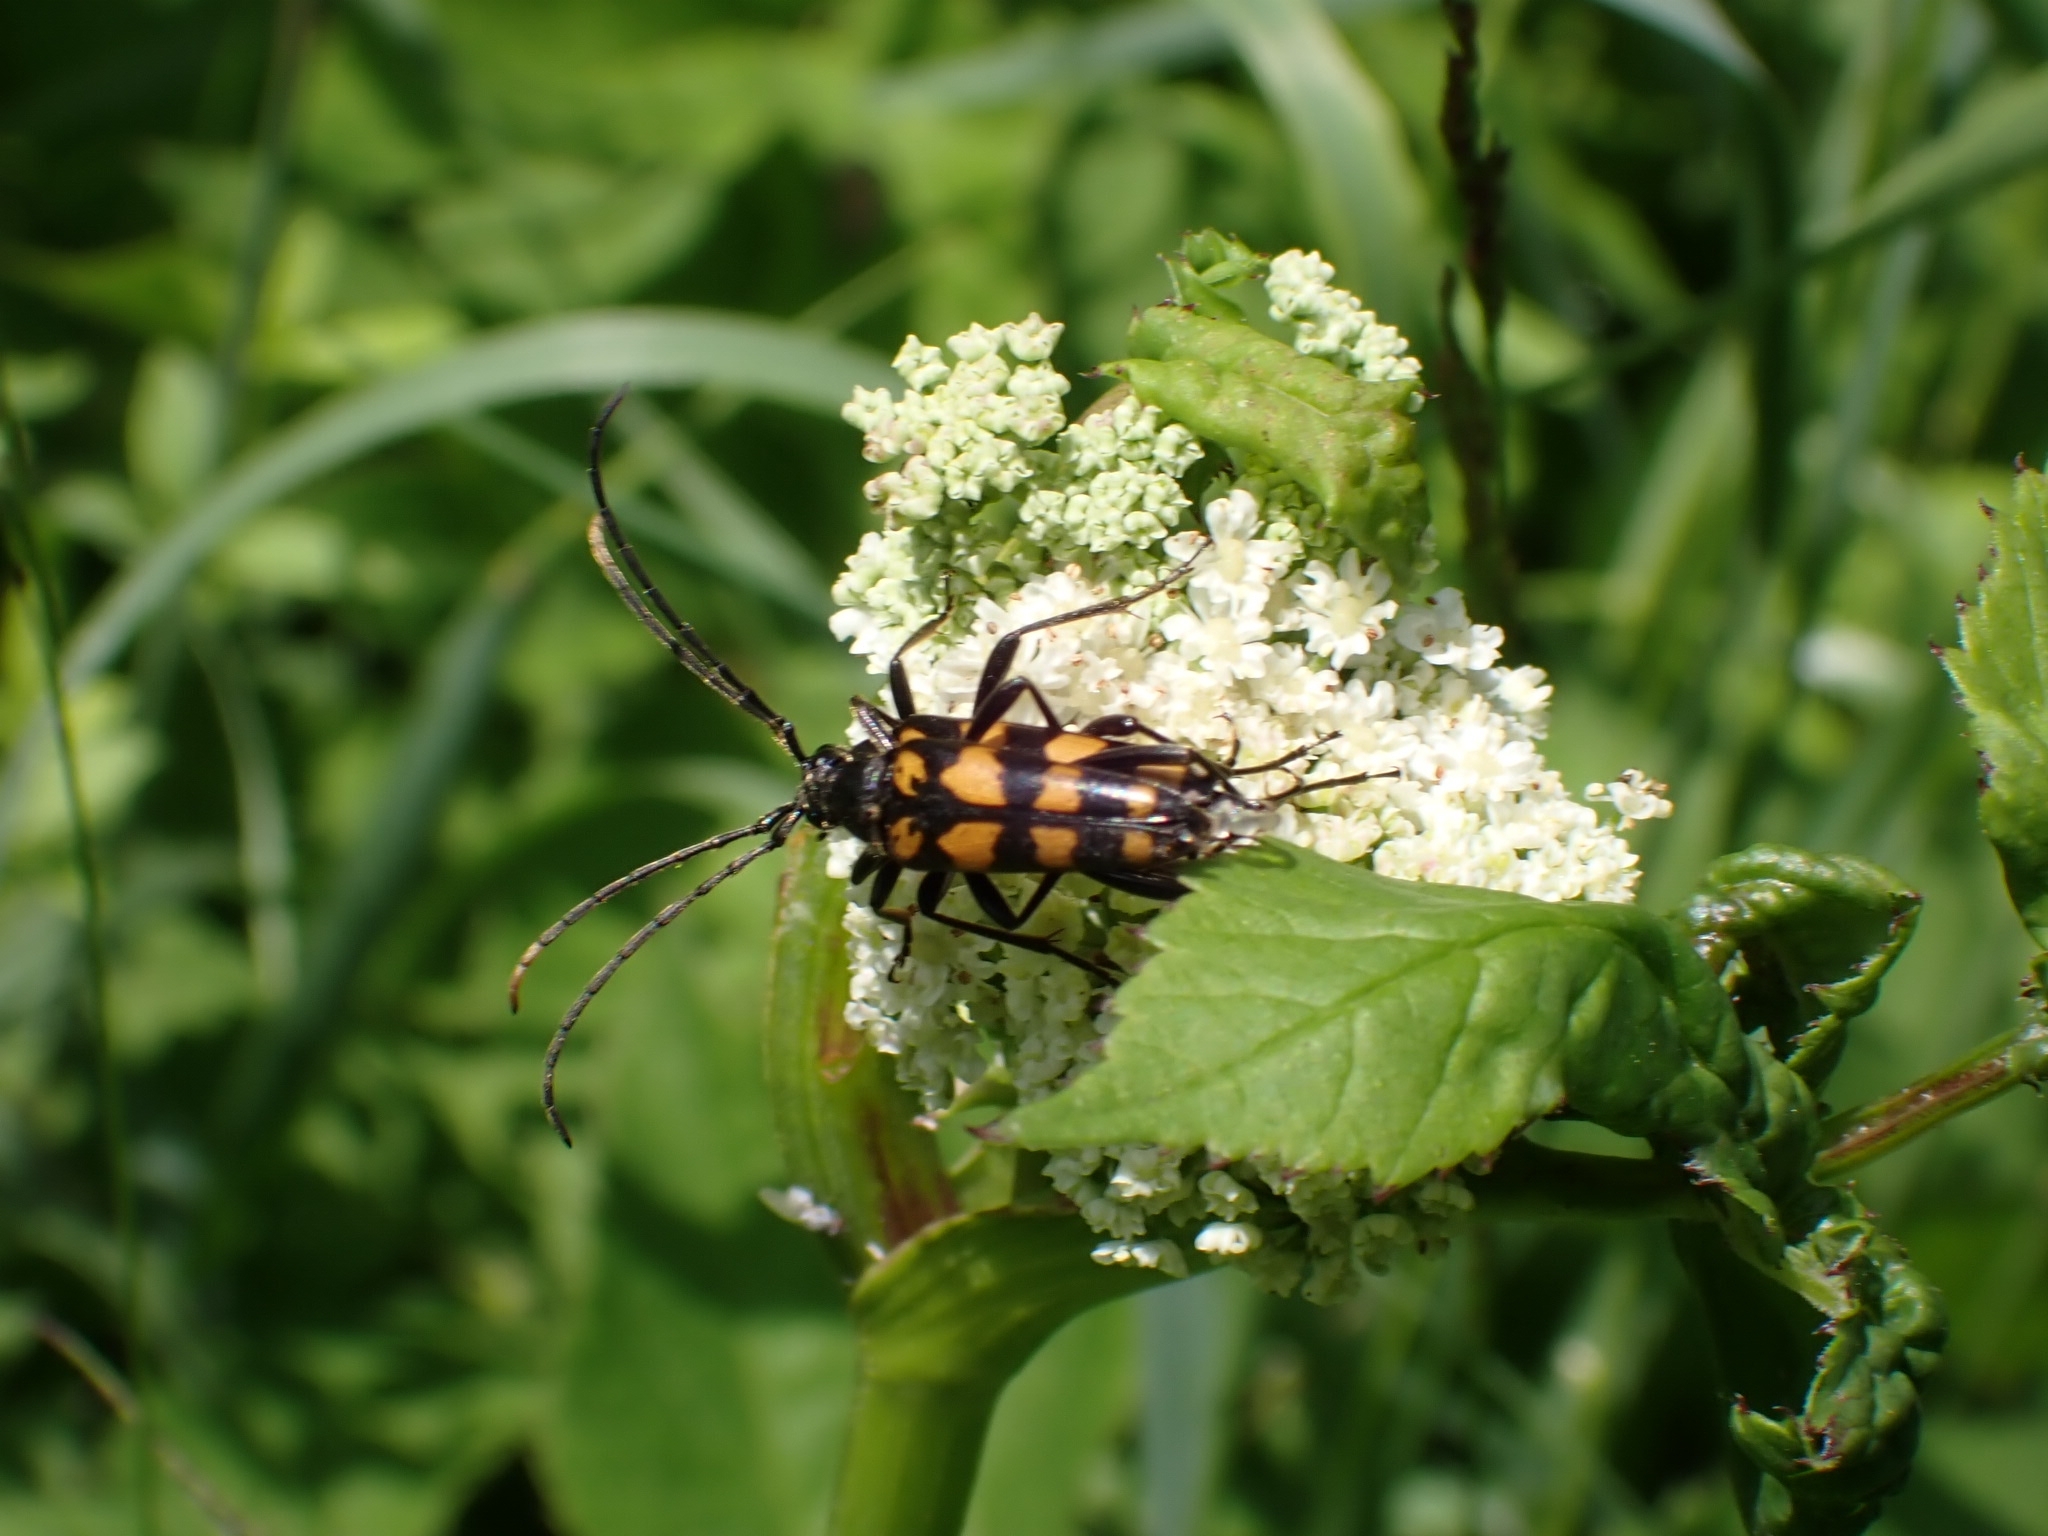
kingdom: Animalia
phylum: Arthropoda
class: Insecta
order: Coleoptera
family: Cerambycidae
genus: Leptura
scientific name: Leptura quadrifasciata
